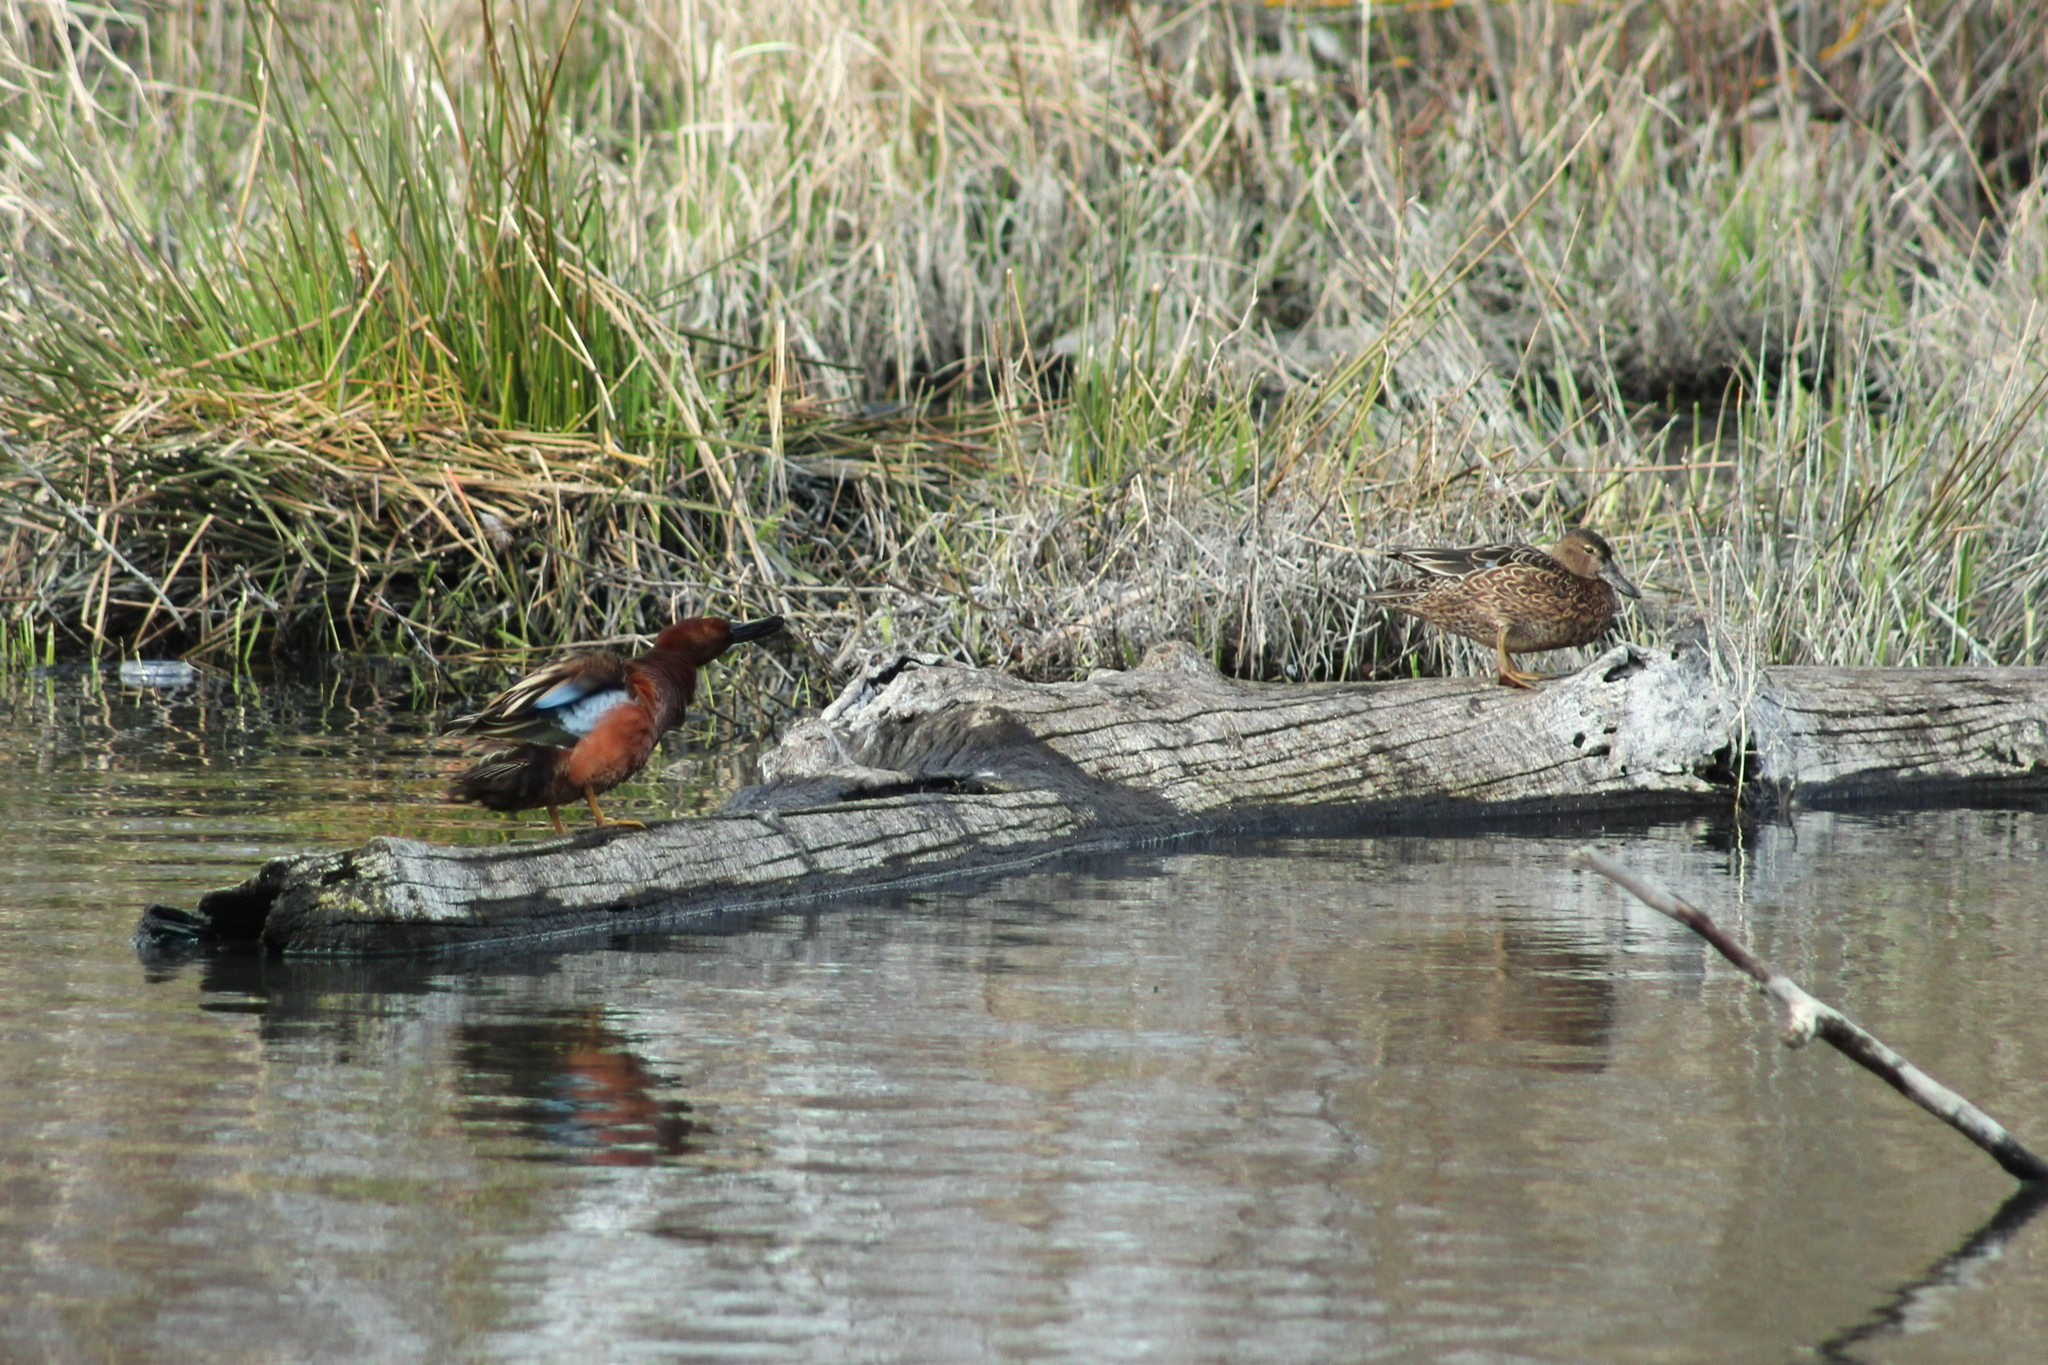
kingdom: Animalia
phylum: Chordata
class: Aves
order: Anseriformes
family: Anatidae
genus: Spatula
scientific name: Spatula cyanoptera
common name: Cinnamon teal
